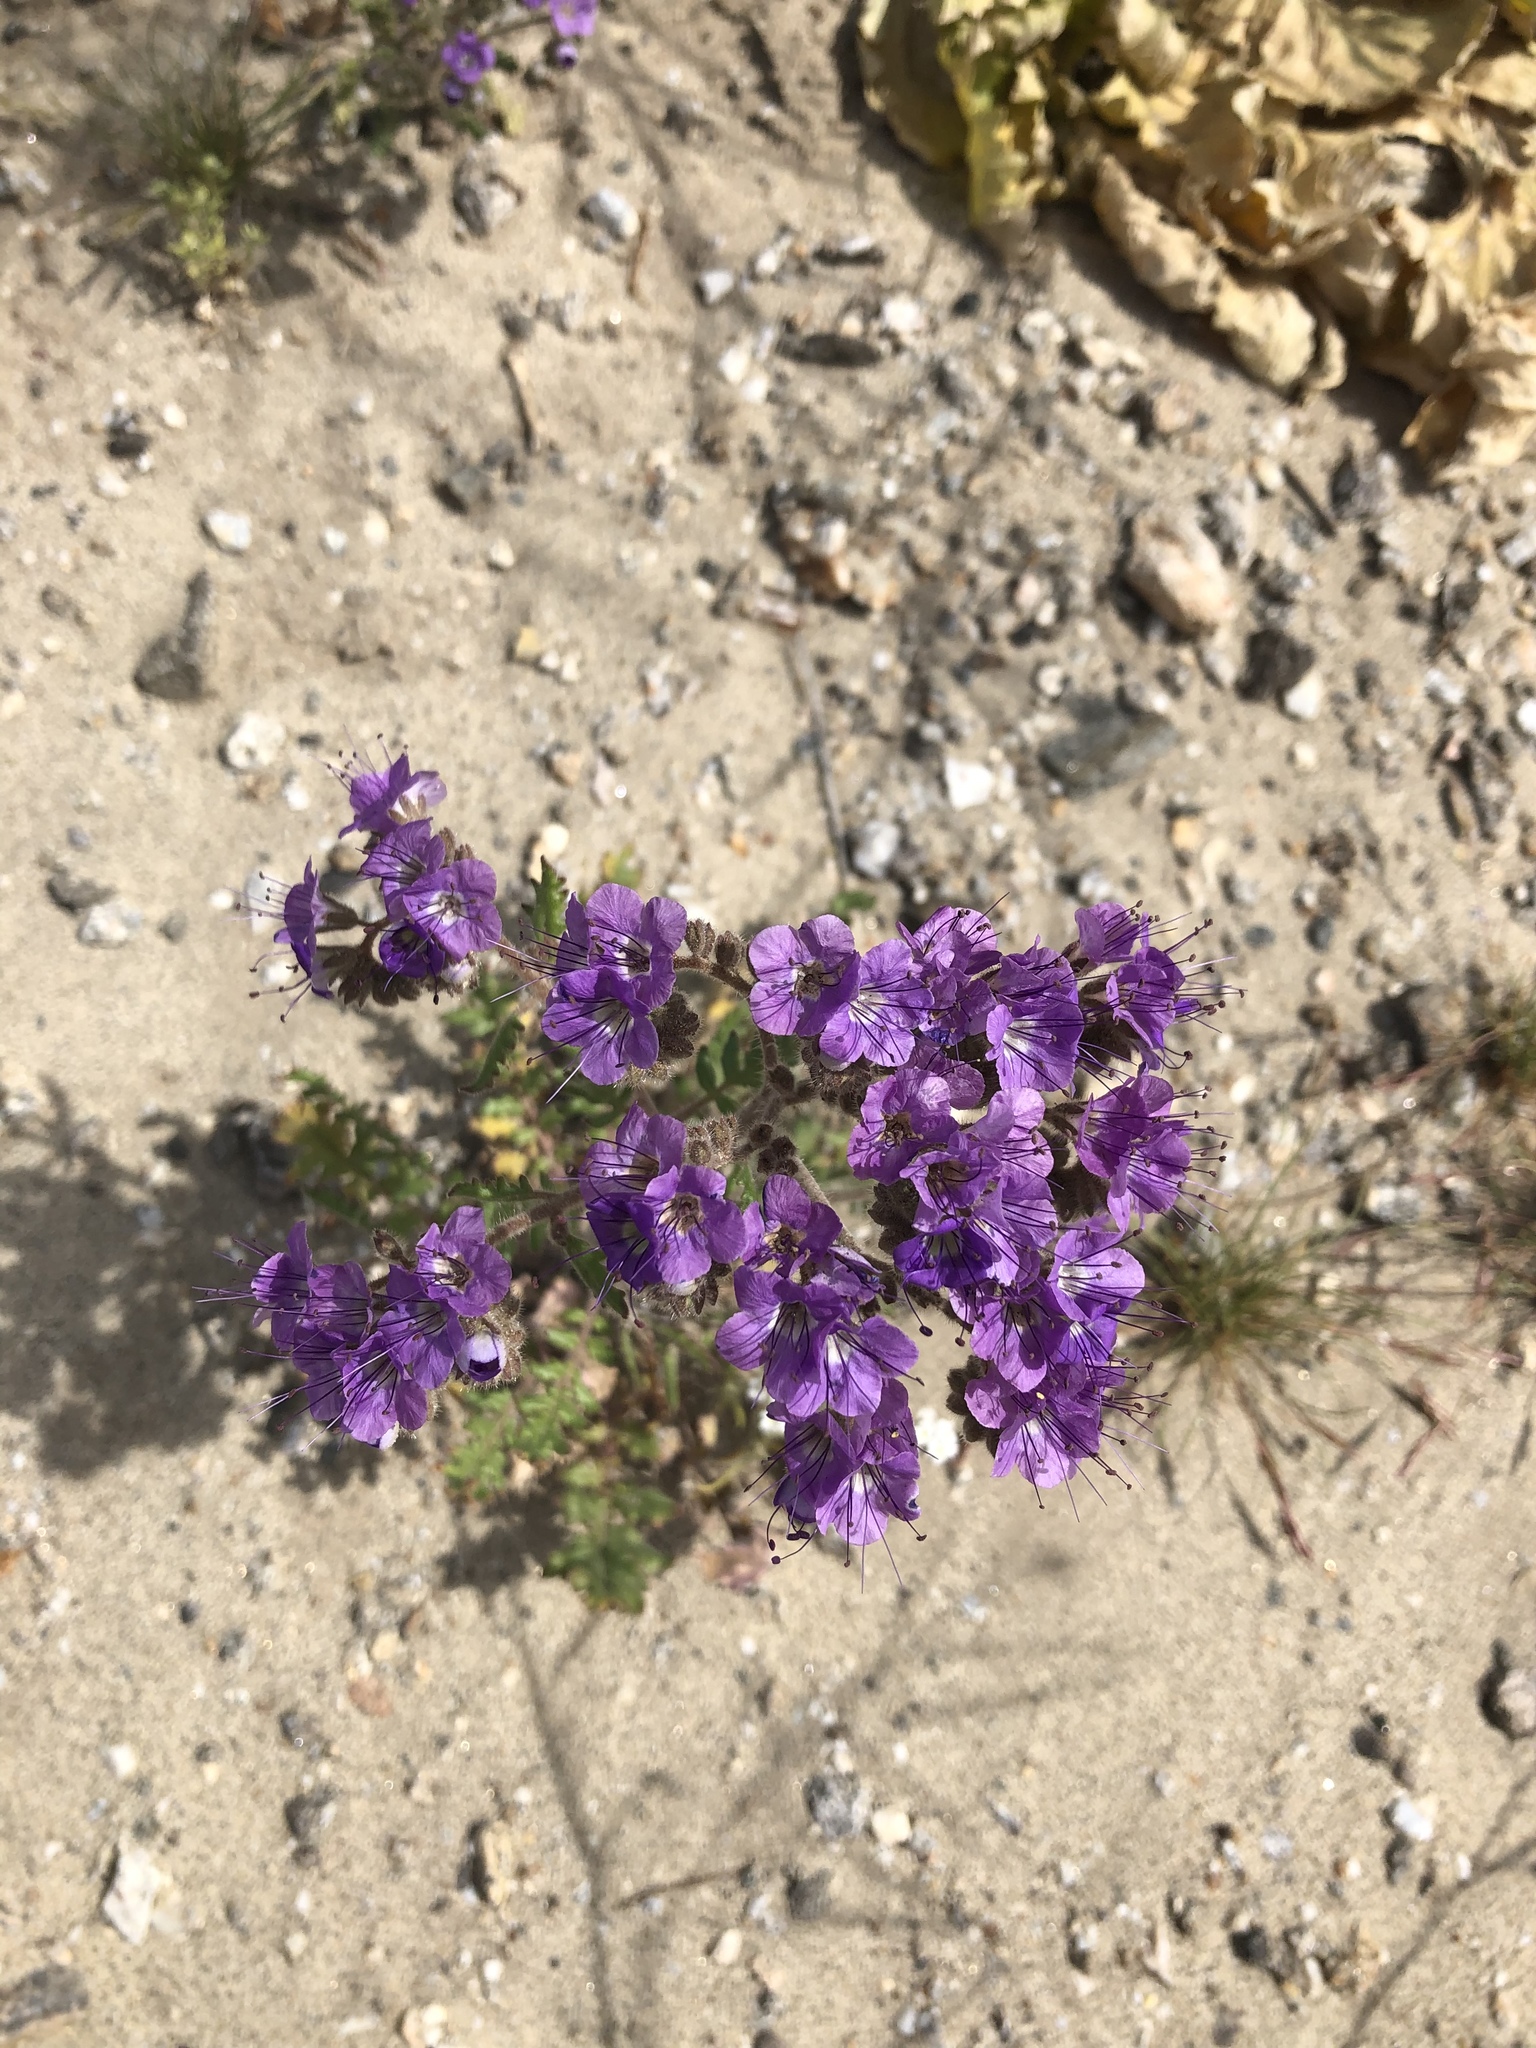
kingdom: Plantae
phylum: Tracheophyta
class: Magnoliopsida
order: Boraginales
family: Hydrophyllaceae
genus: Phacelia
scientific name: Phacelia crenulata
